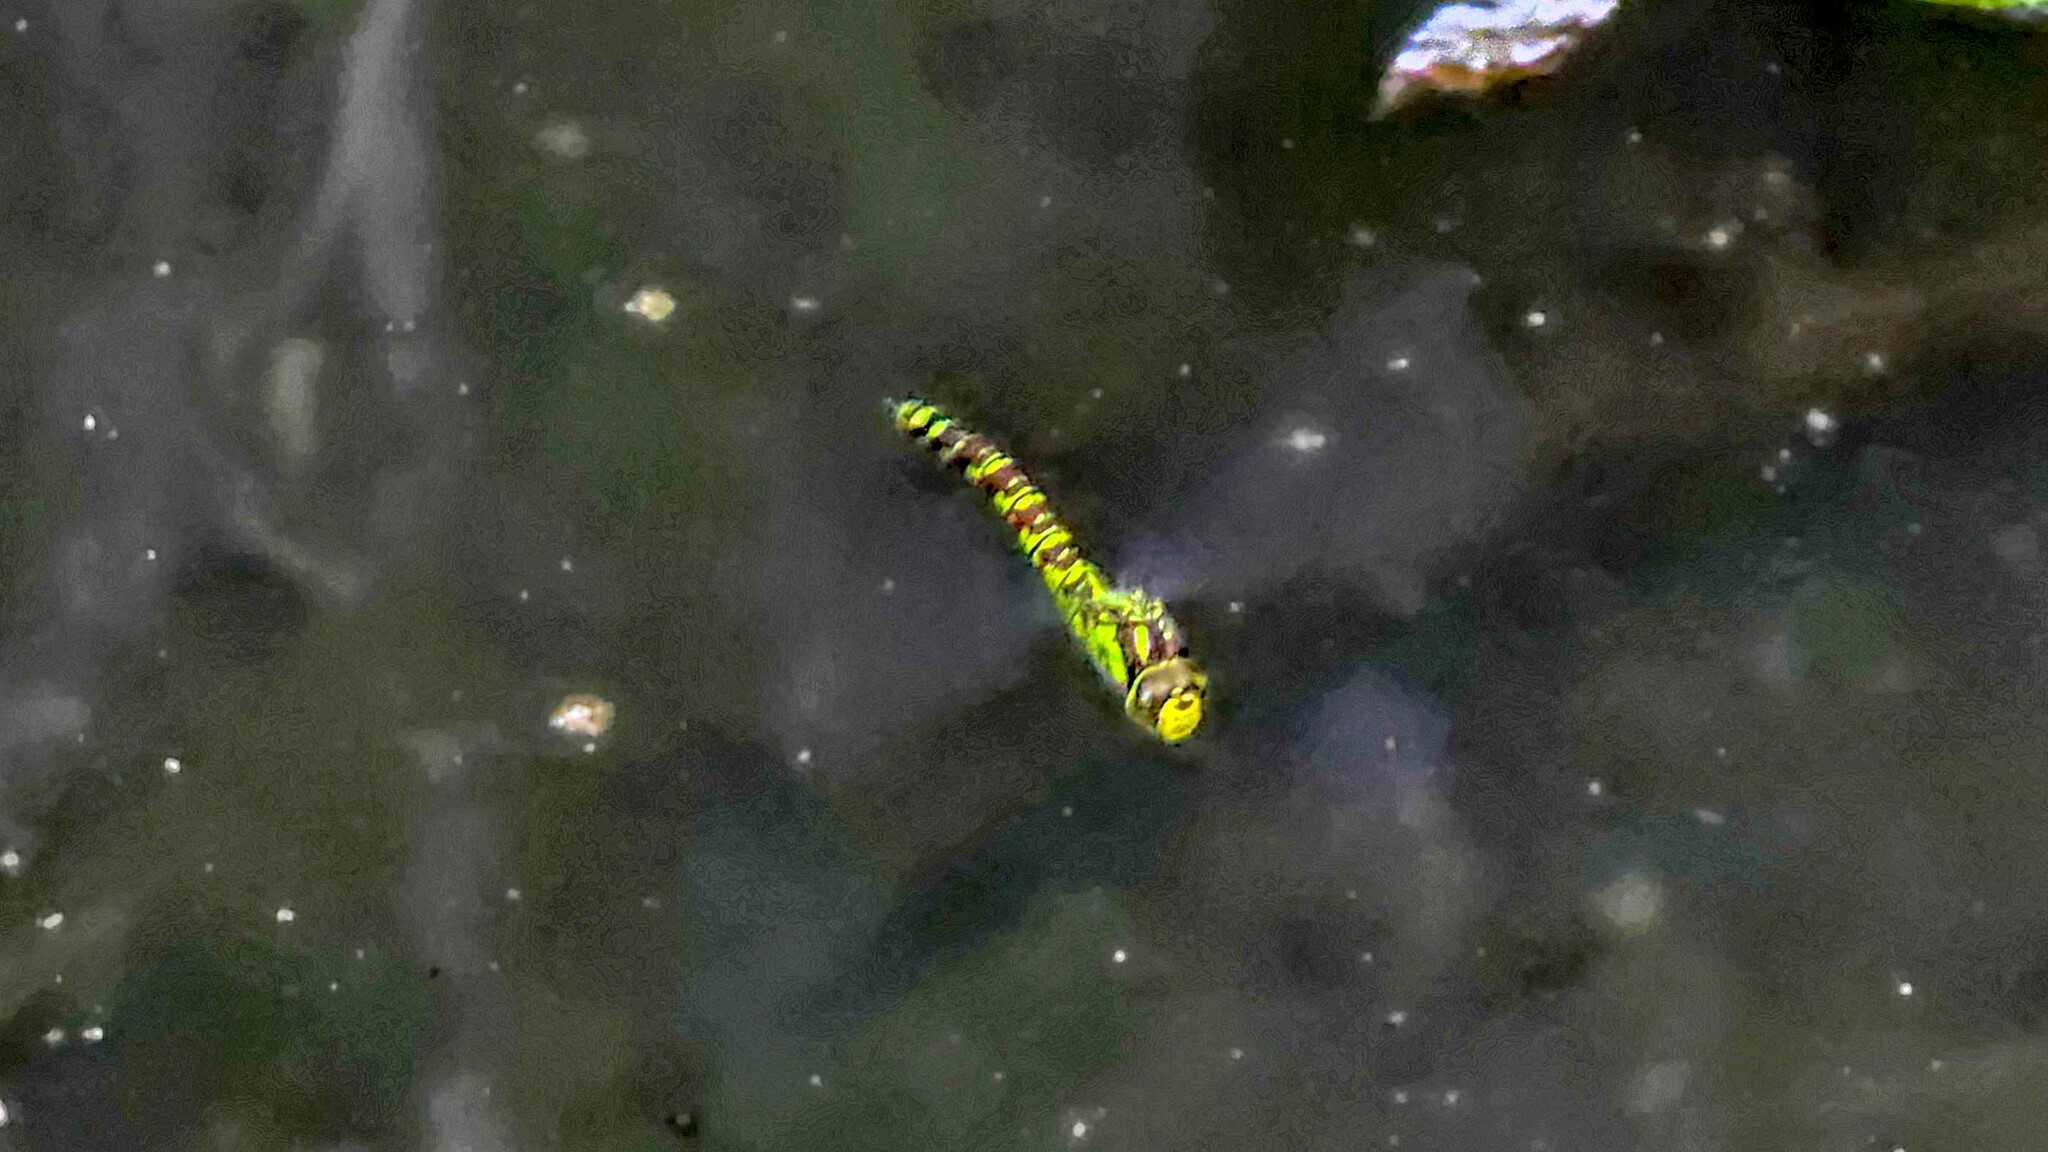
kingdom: Animalia
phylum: Arthropoda
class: Insecta
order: Odonata
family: Aeshnidae
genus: Aeshna
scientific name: Aeshna cyanea
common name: Southern hawker
